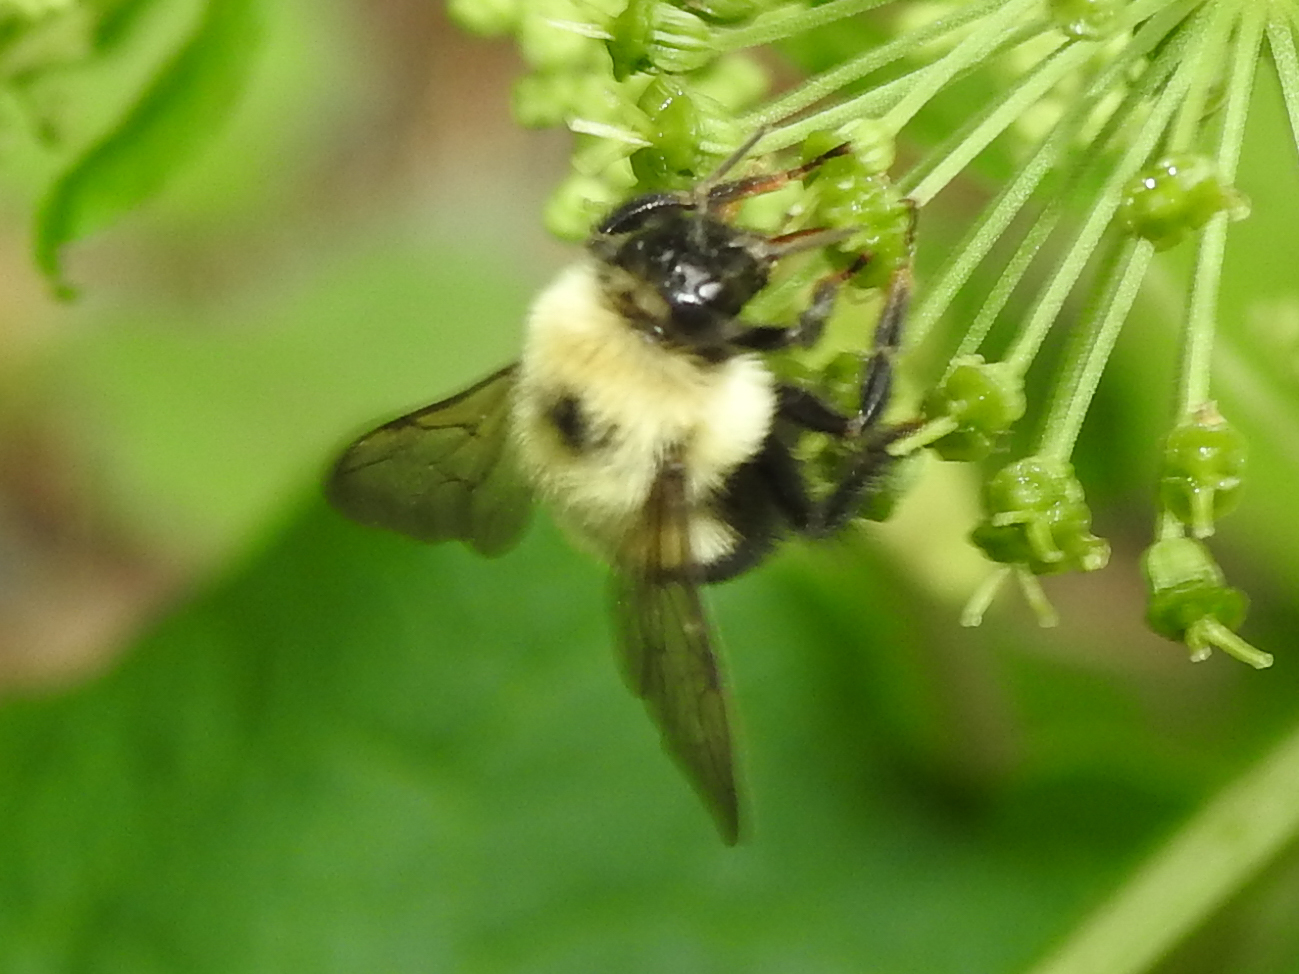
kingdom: Animalia
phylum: Arthropoda
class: Insecta
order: Hymenoptera
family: Apidae
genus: Bombus
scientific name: Bombus bimaculatus
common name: Two-spotted bumble bee
